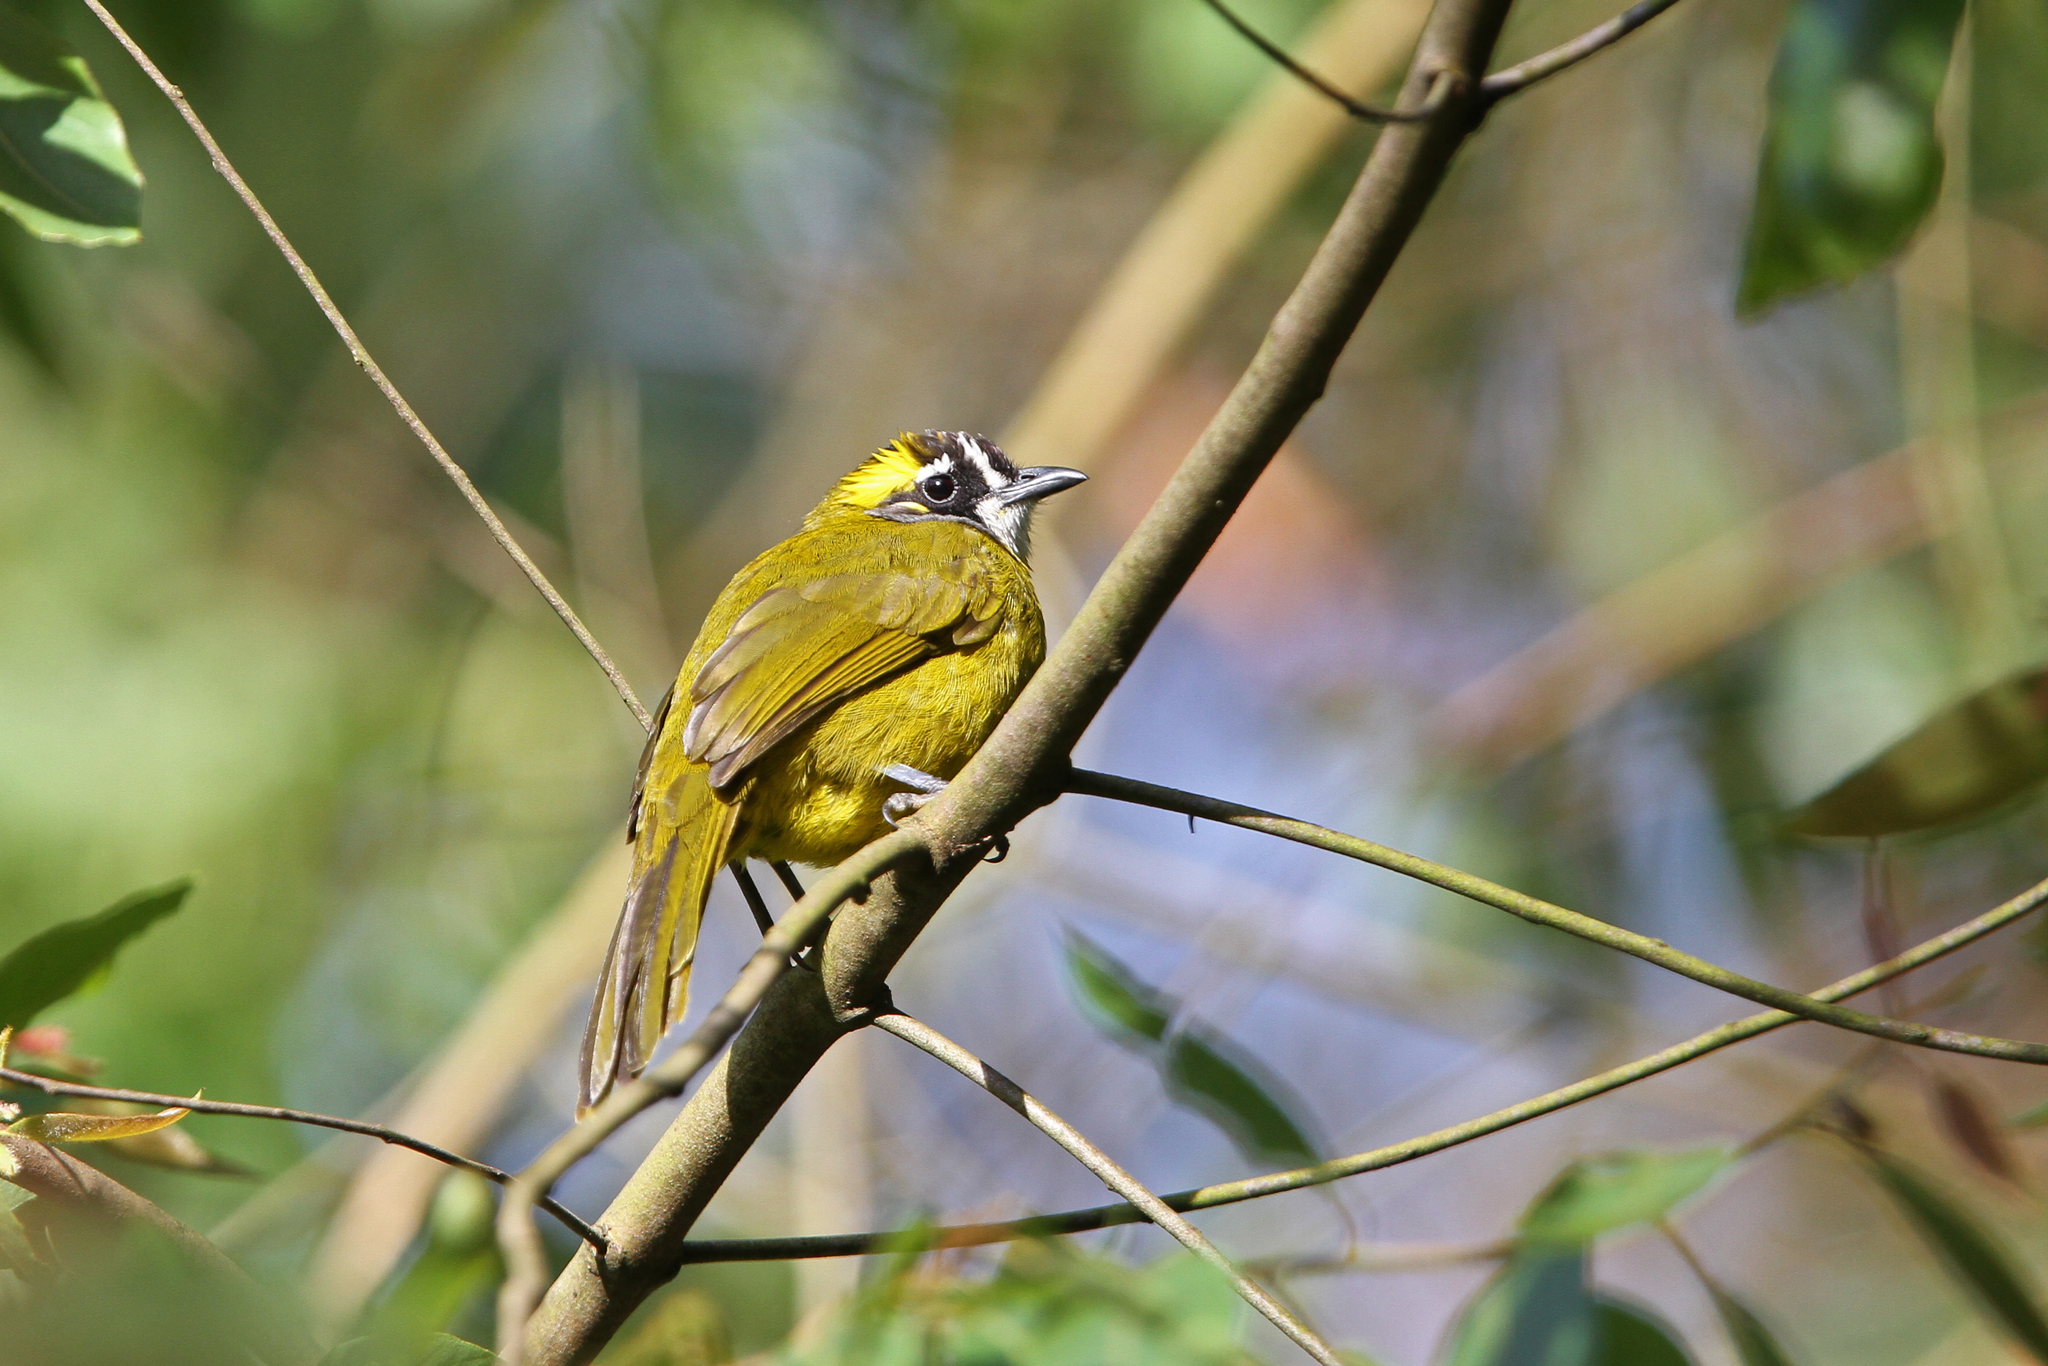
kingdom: Animalia
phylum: Chordata
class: Aves
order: Passeriformes
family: Pycnonotidae
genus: Pycnonotus
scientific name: Pycnonotus penicillatus
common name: Yellow-eared bulbul
